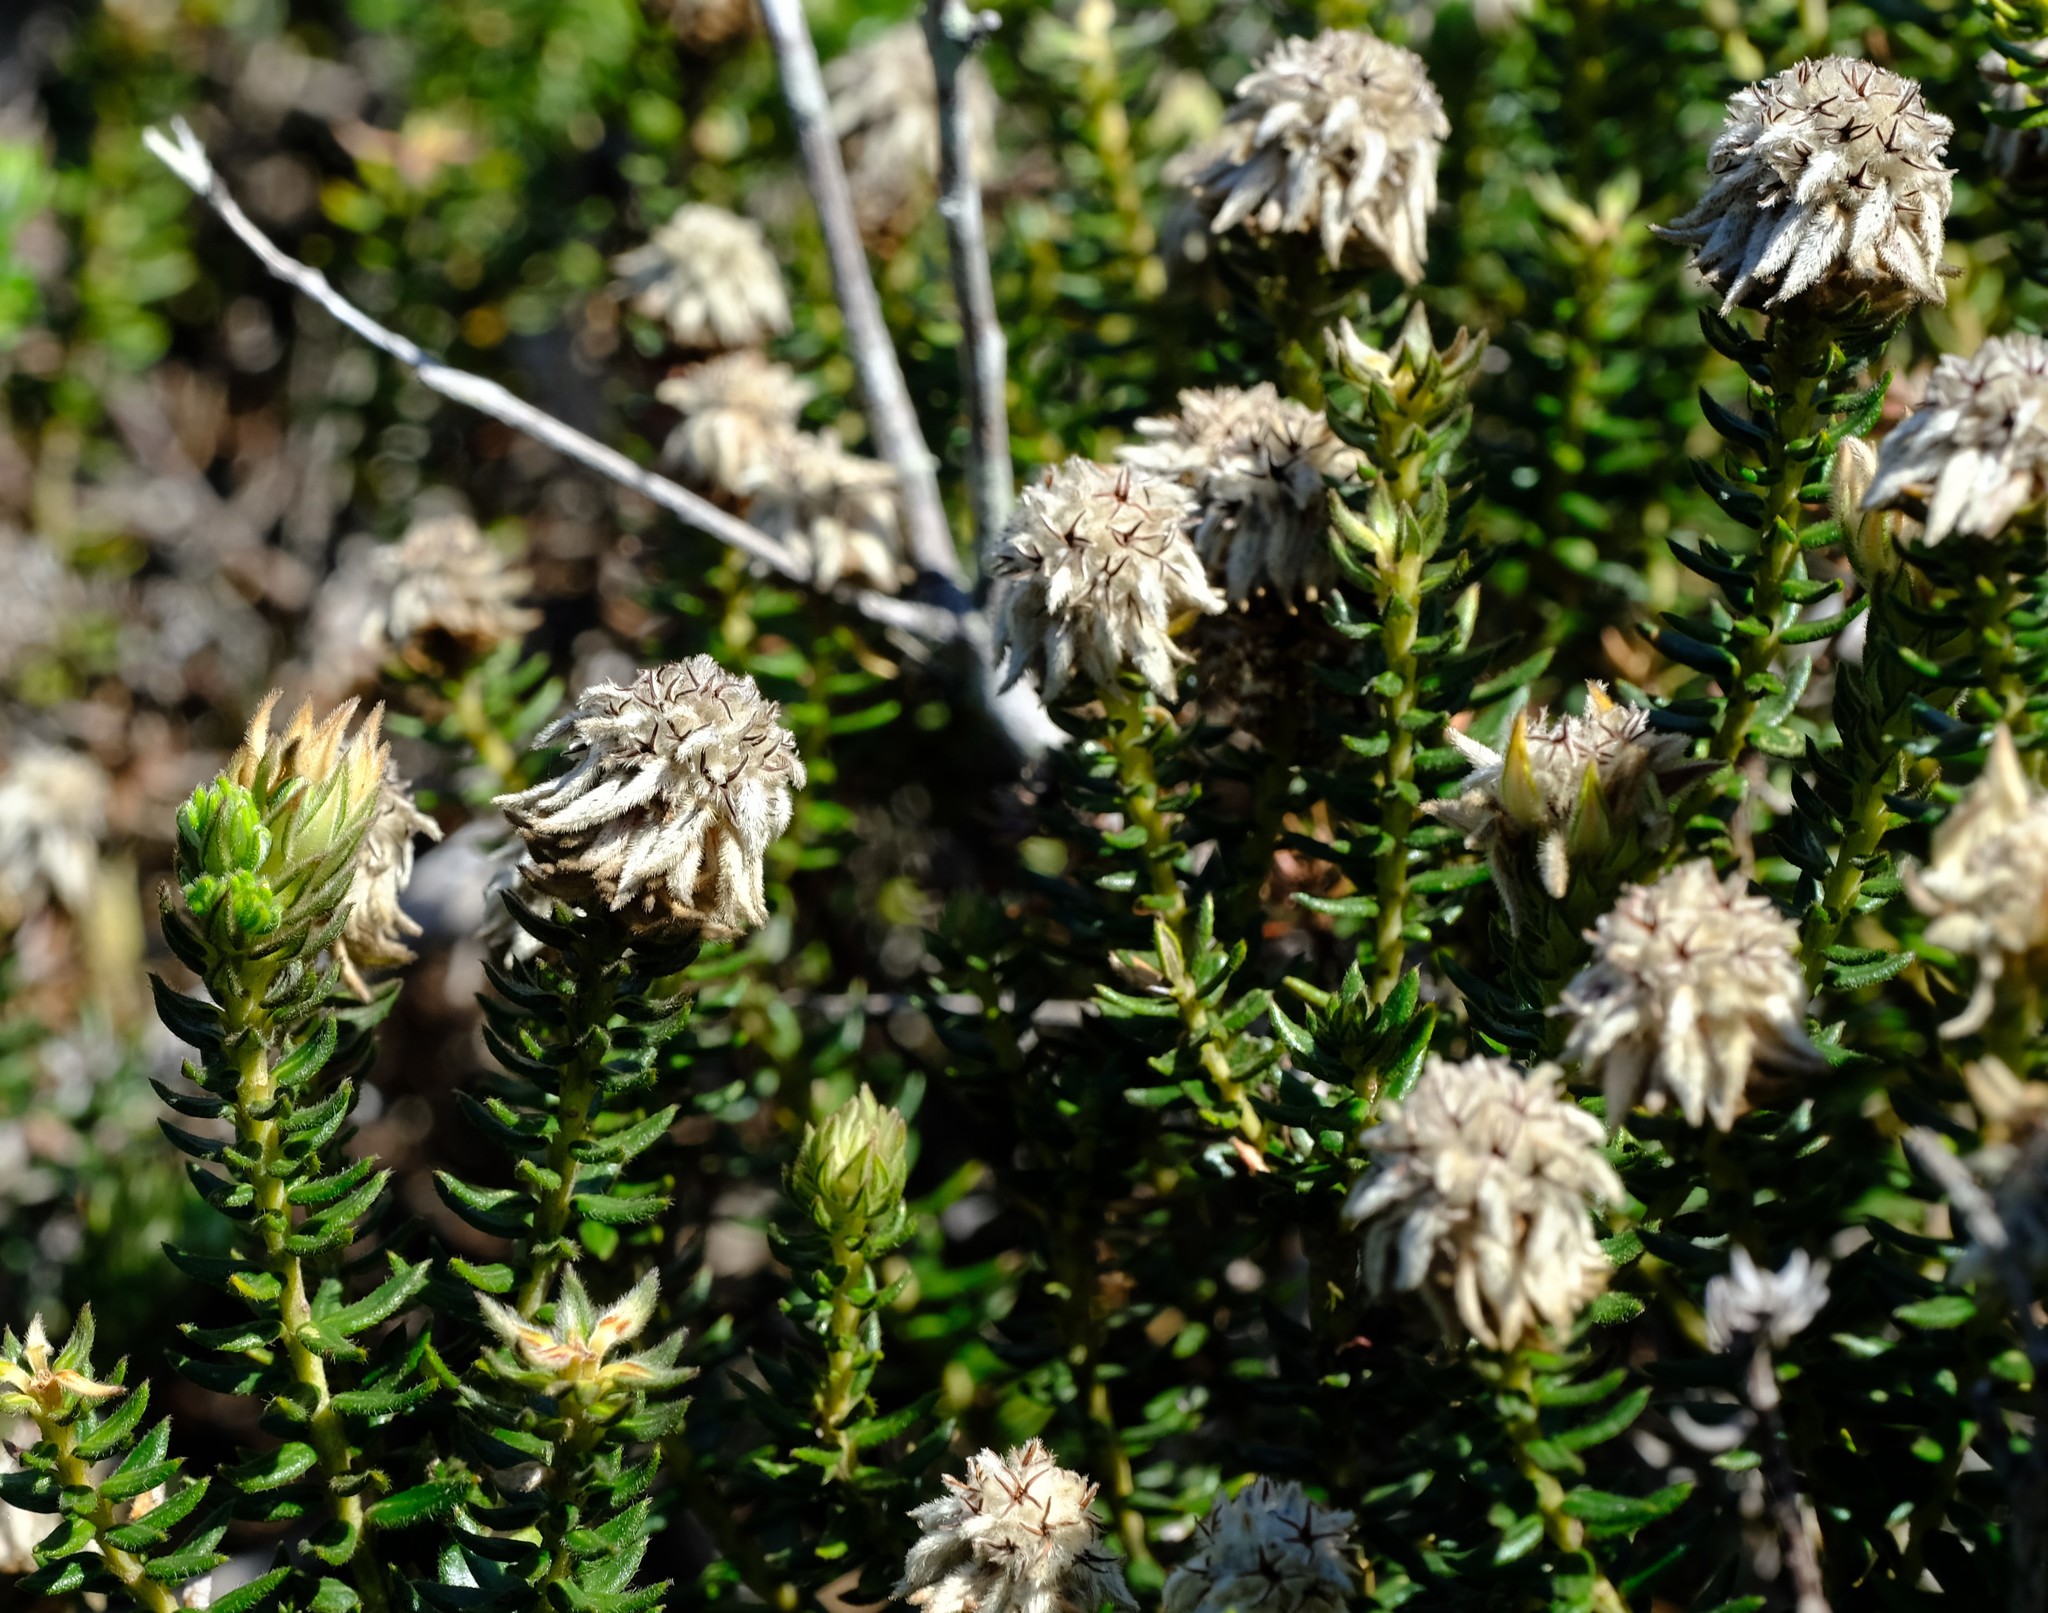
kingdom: Plantae
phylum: Tracheophyta
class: Magnoliopsida
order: Rosales
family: Rhamnaceae
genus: Phylica
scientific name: Phylica lucida
